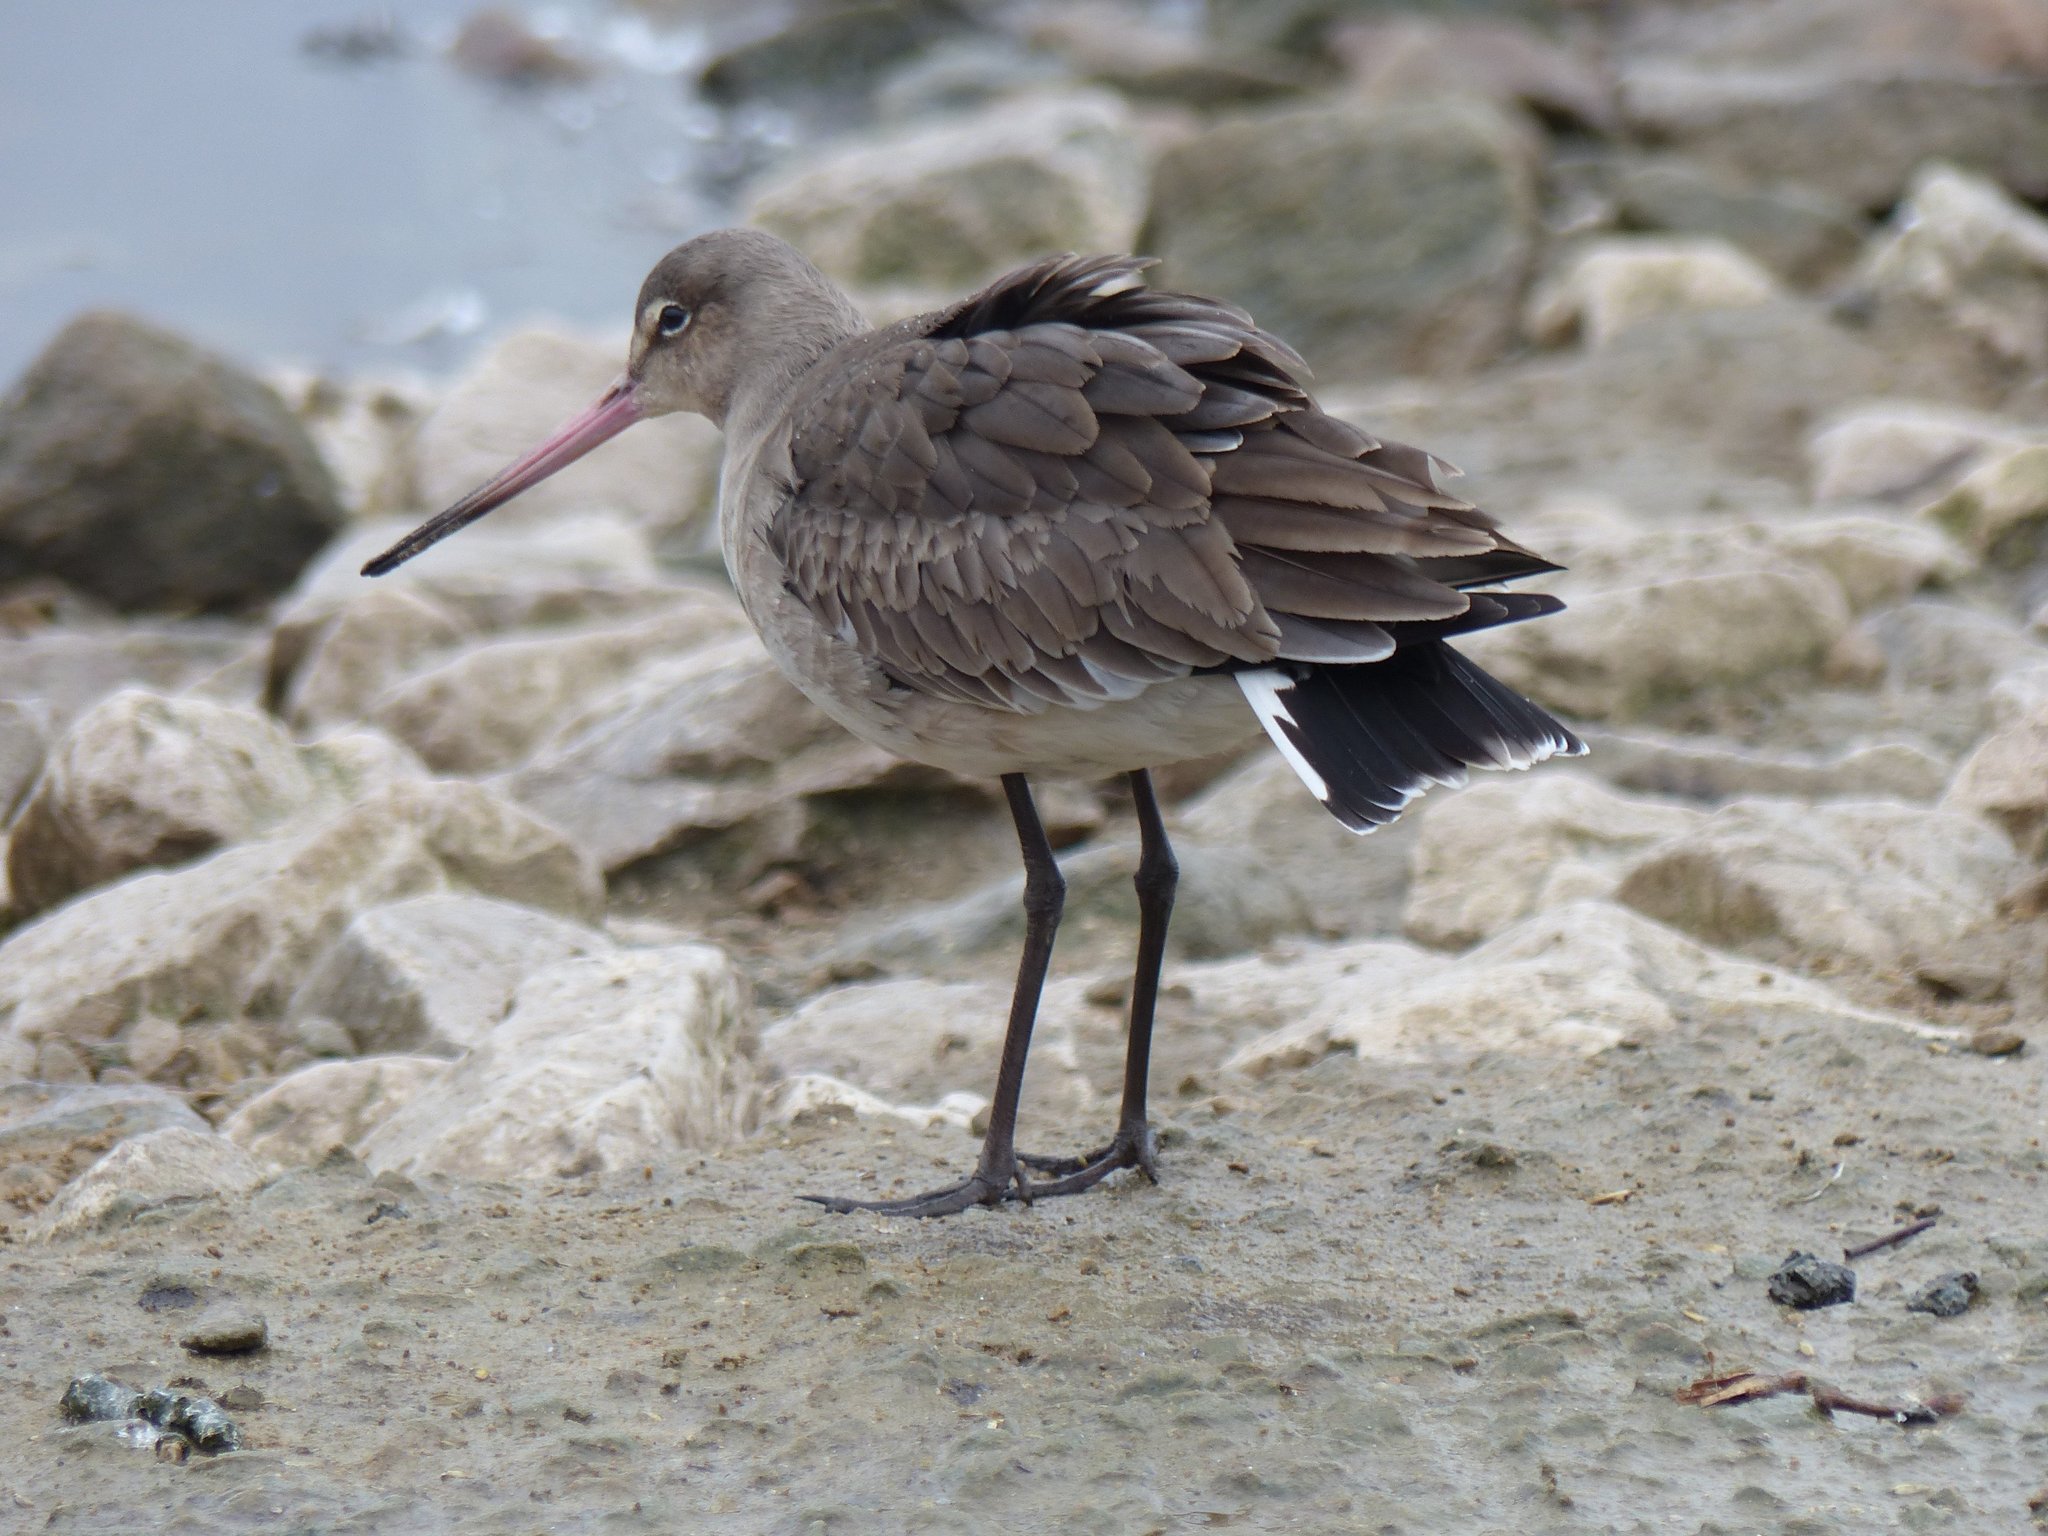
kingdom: Animalia
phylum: Chordata
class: Aves
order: Charadriiformes
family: Scolopacidae
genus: Limosa
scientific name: Limosa limosa
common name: Black-tailed godwit
